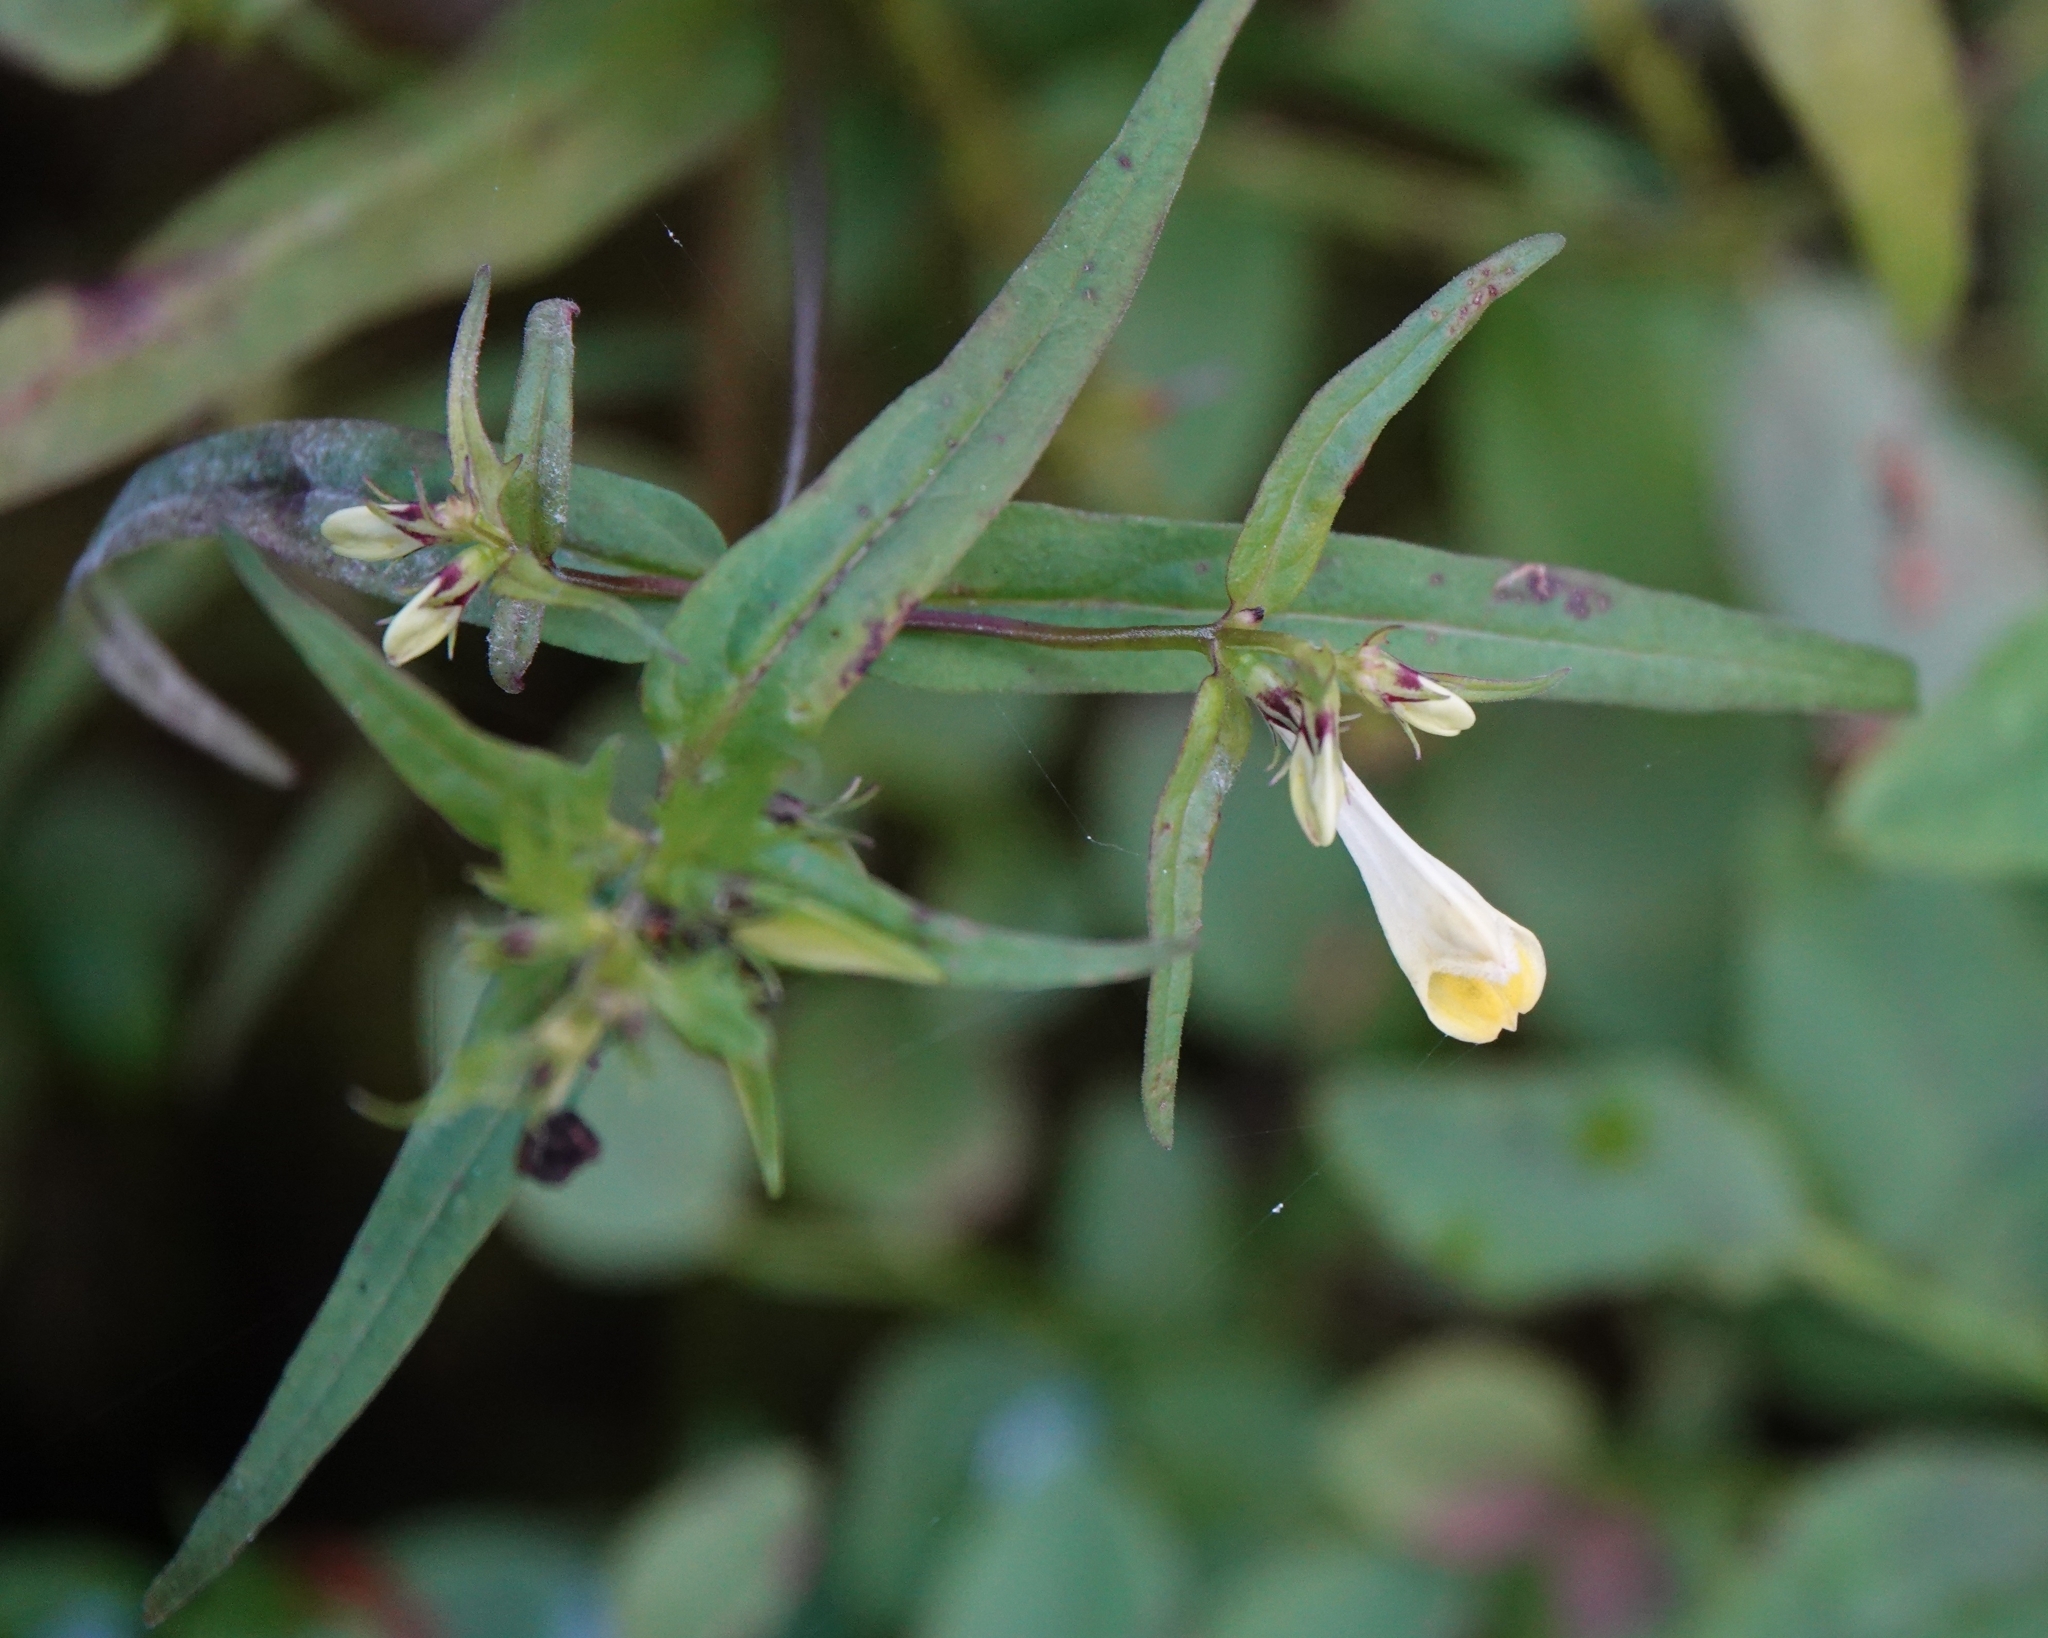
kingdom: Plantae
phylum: Tracheophyta
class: Magnoliopsida
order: Lamiales
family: Orobanchaceae
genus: Melampyrum
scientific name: Melampyrum pratense
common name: Common cow-wheat
